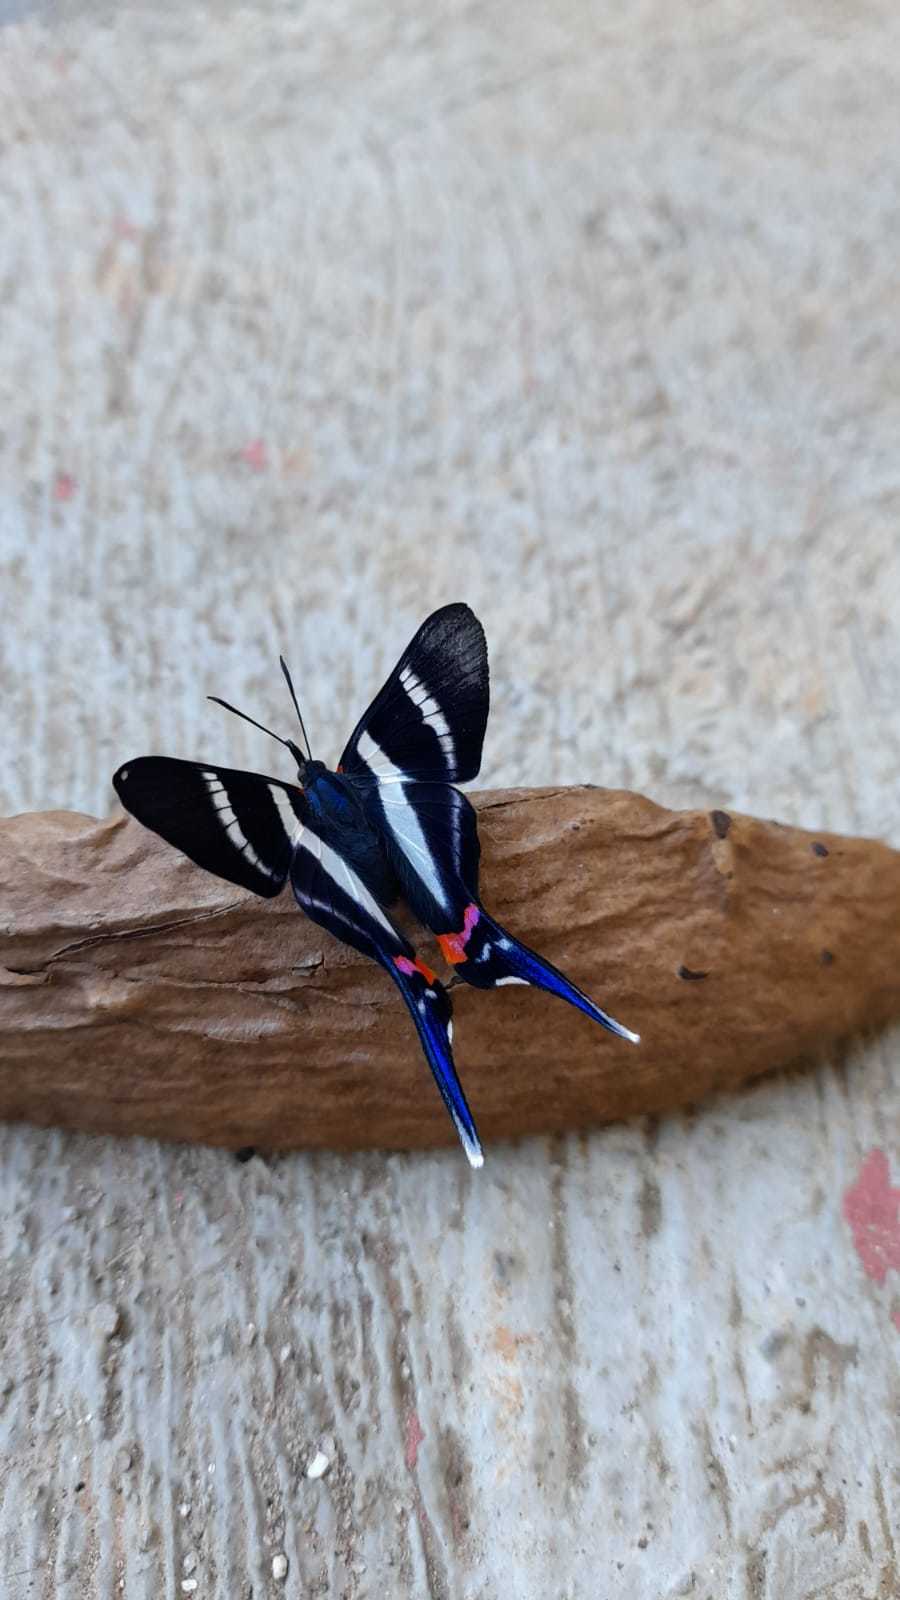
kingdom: Animalia
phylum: Arthropoda
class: Insecta
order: Lepidoptera
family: Riodinidae
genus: Rhetus
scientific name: Rhetus arcius
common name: Long-tailed metalmark
